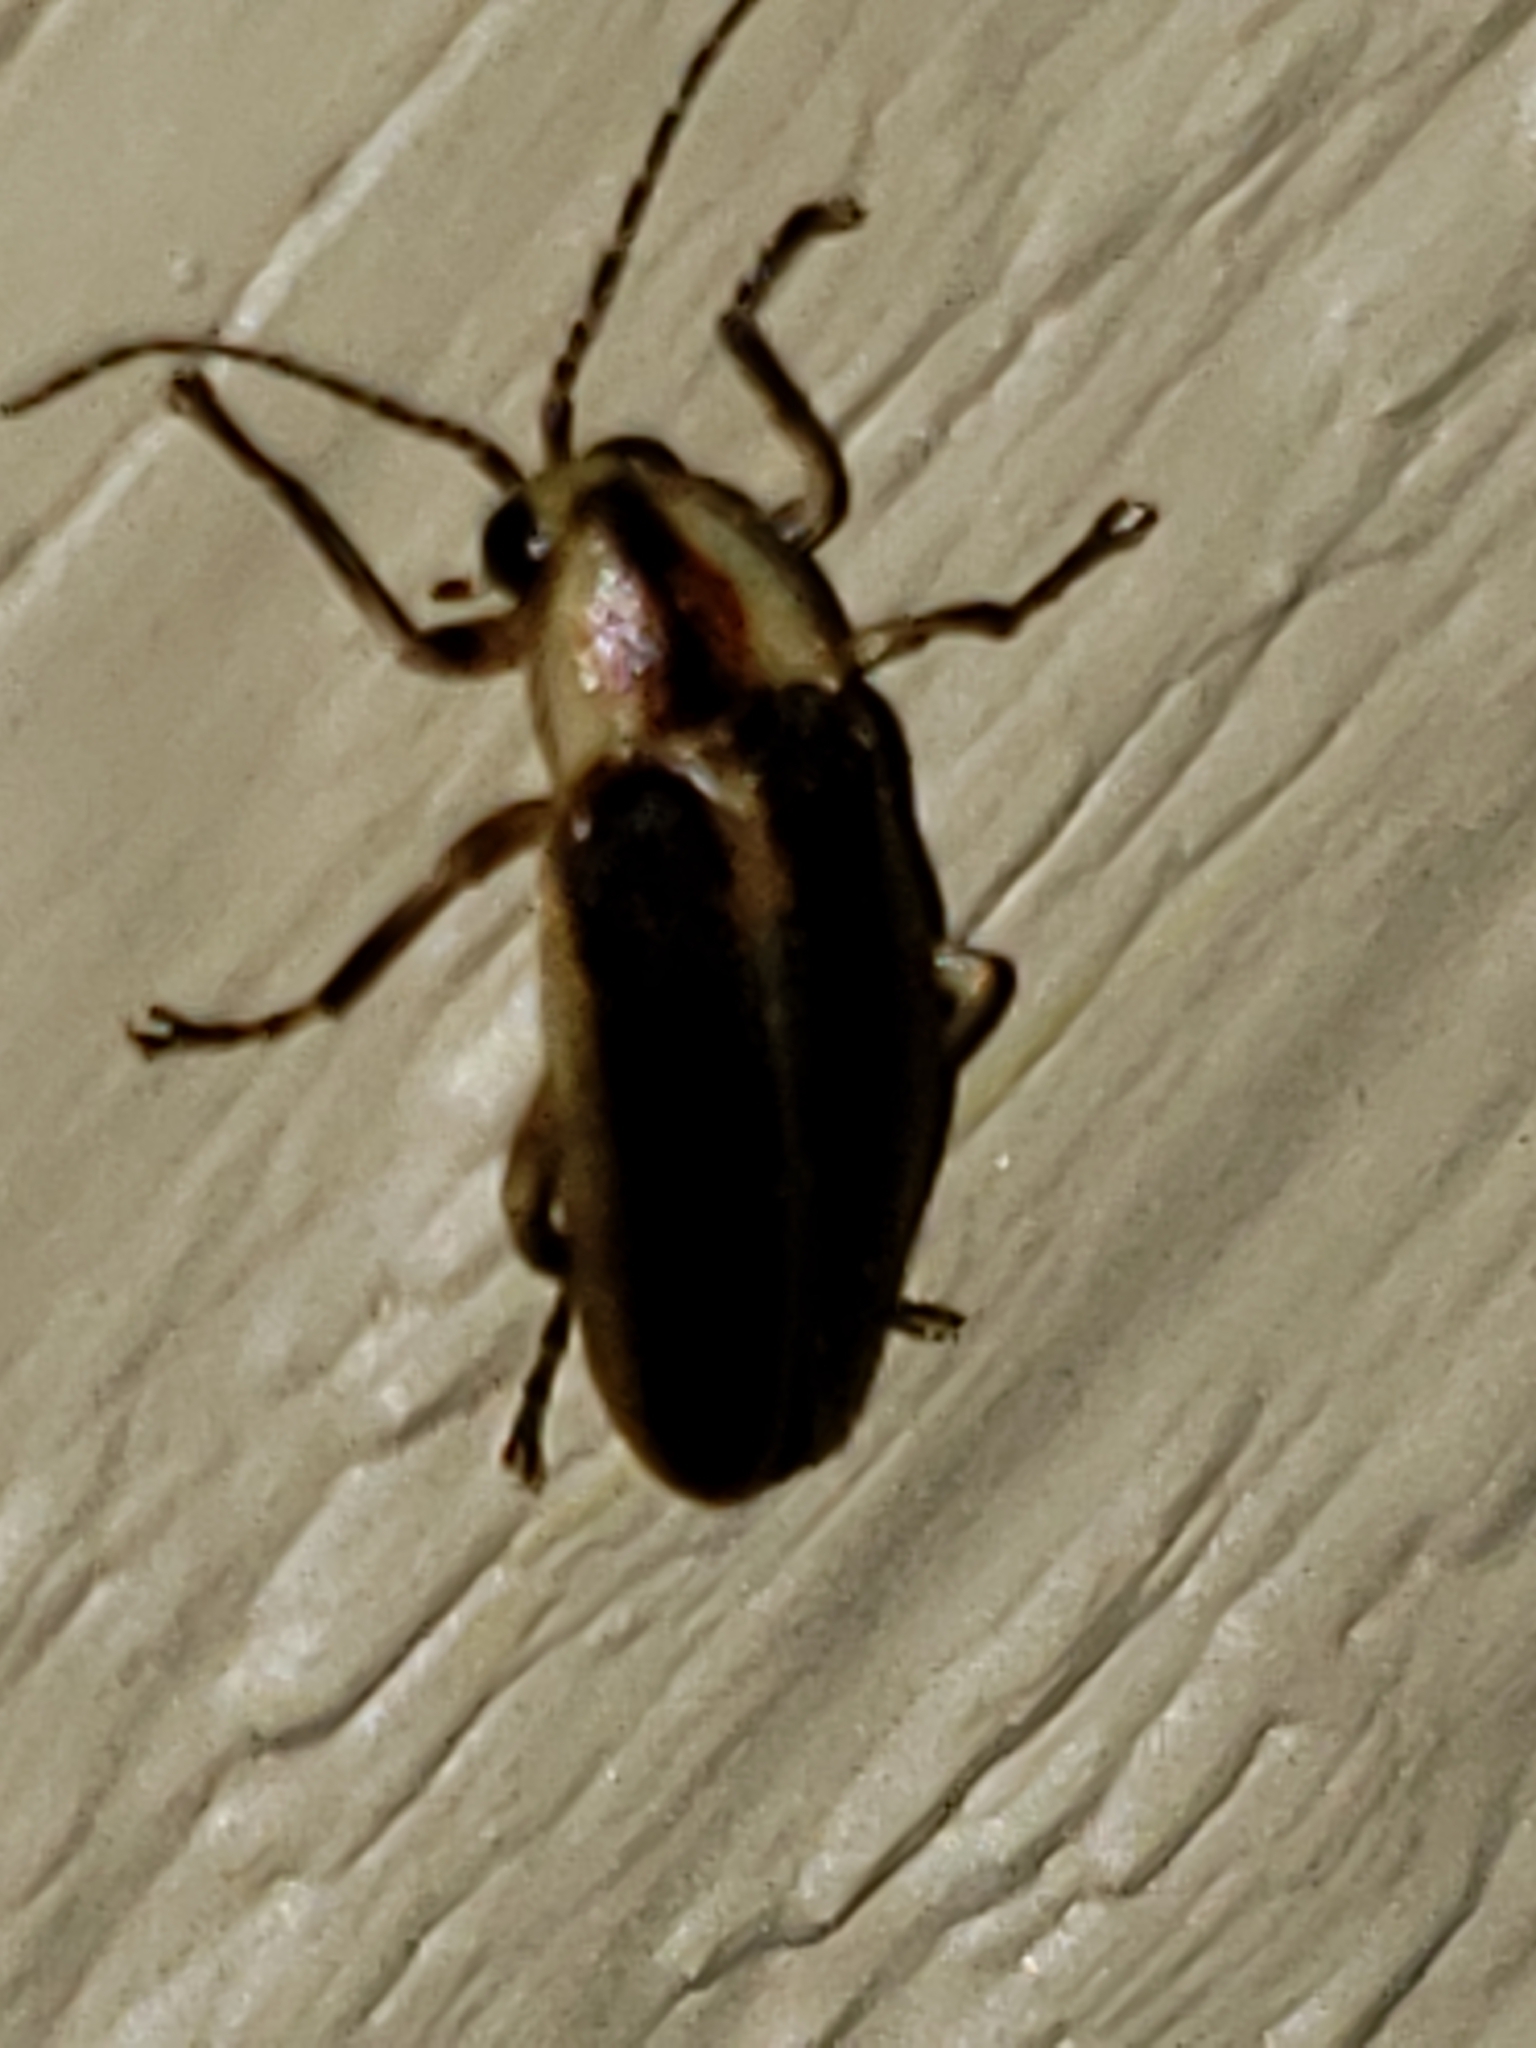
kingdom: Animalia
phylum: Arthropoda
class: Insecta
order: Coleoptera
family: Lampyridae
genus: Photuris
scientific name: Photuris
